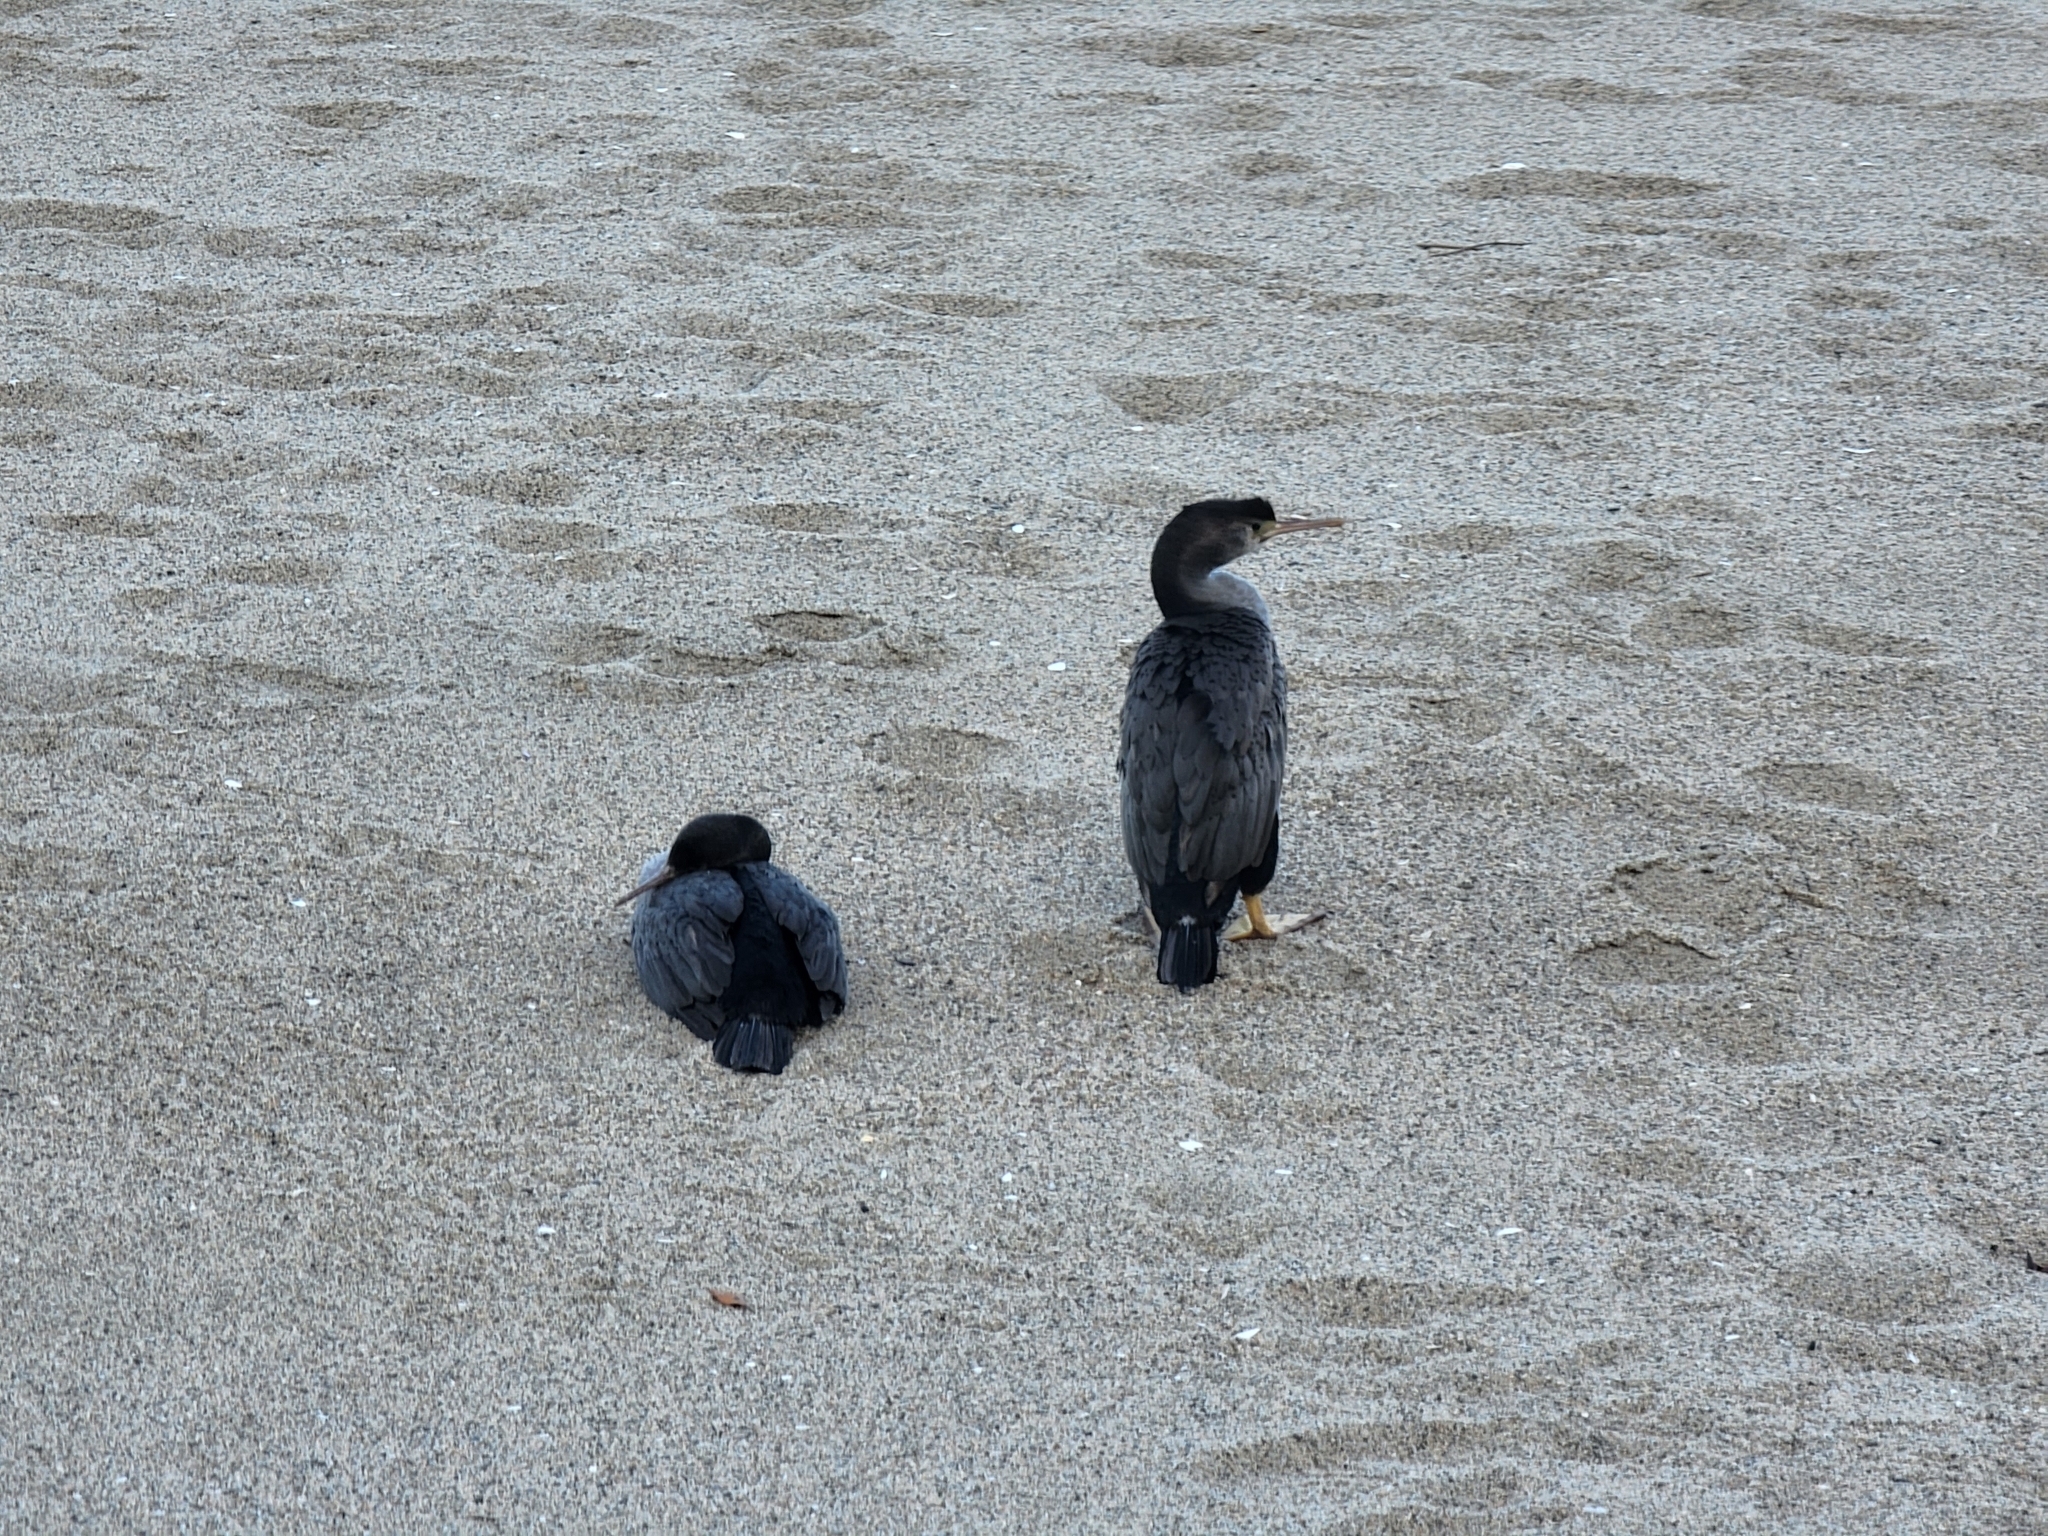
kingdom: Animalia
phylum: Chordata
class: Aves
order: Suliformes
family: Phalacrocoracidae
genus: Phalacrocorax
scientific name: Phalacrocorax punctatus
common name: Spotted shag
